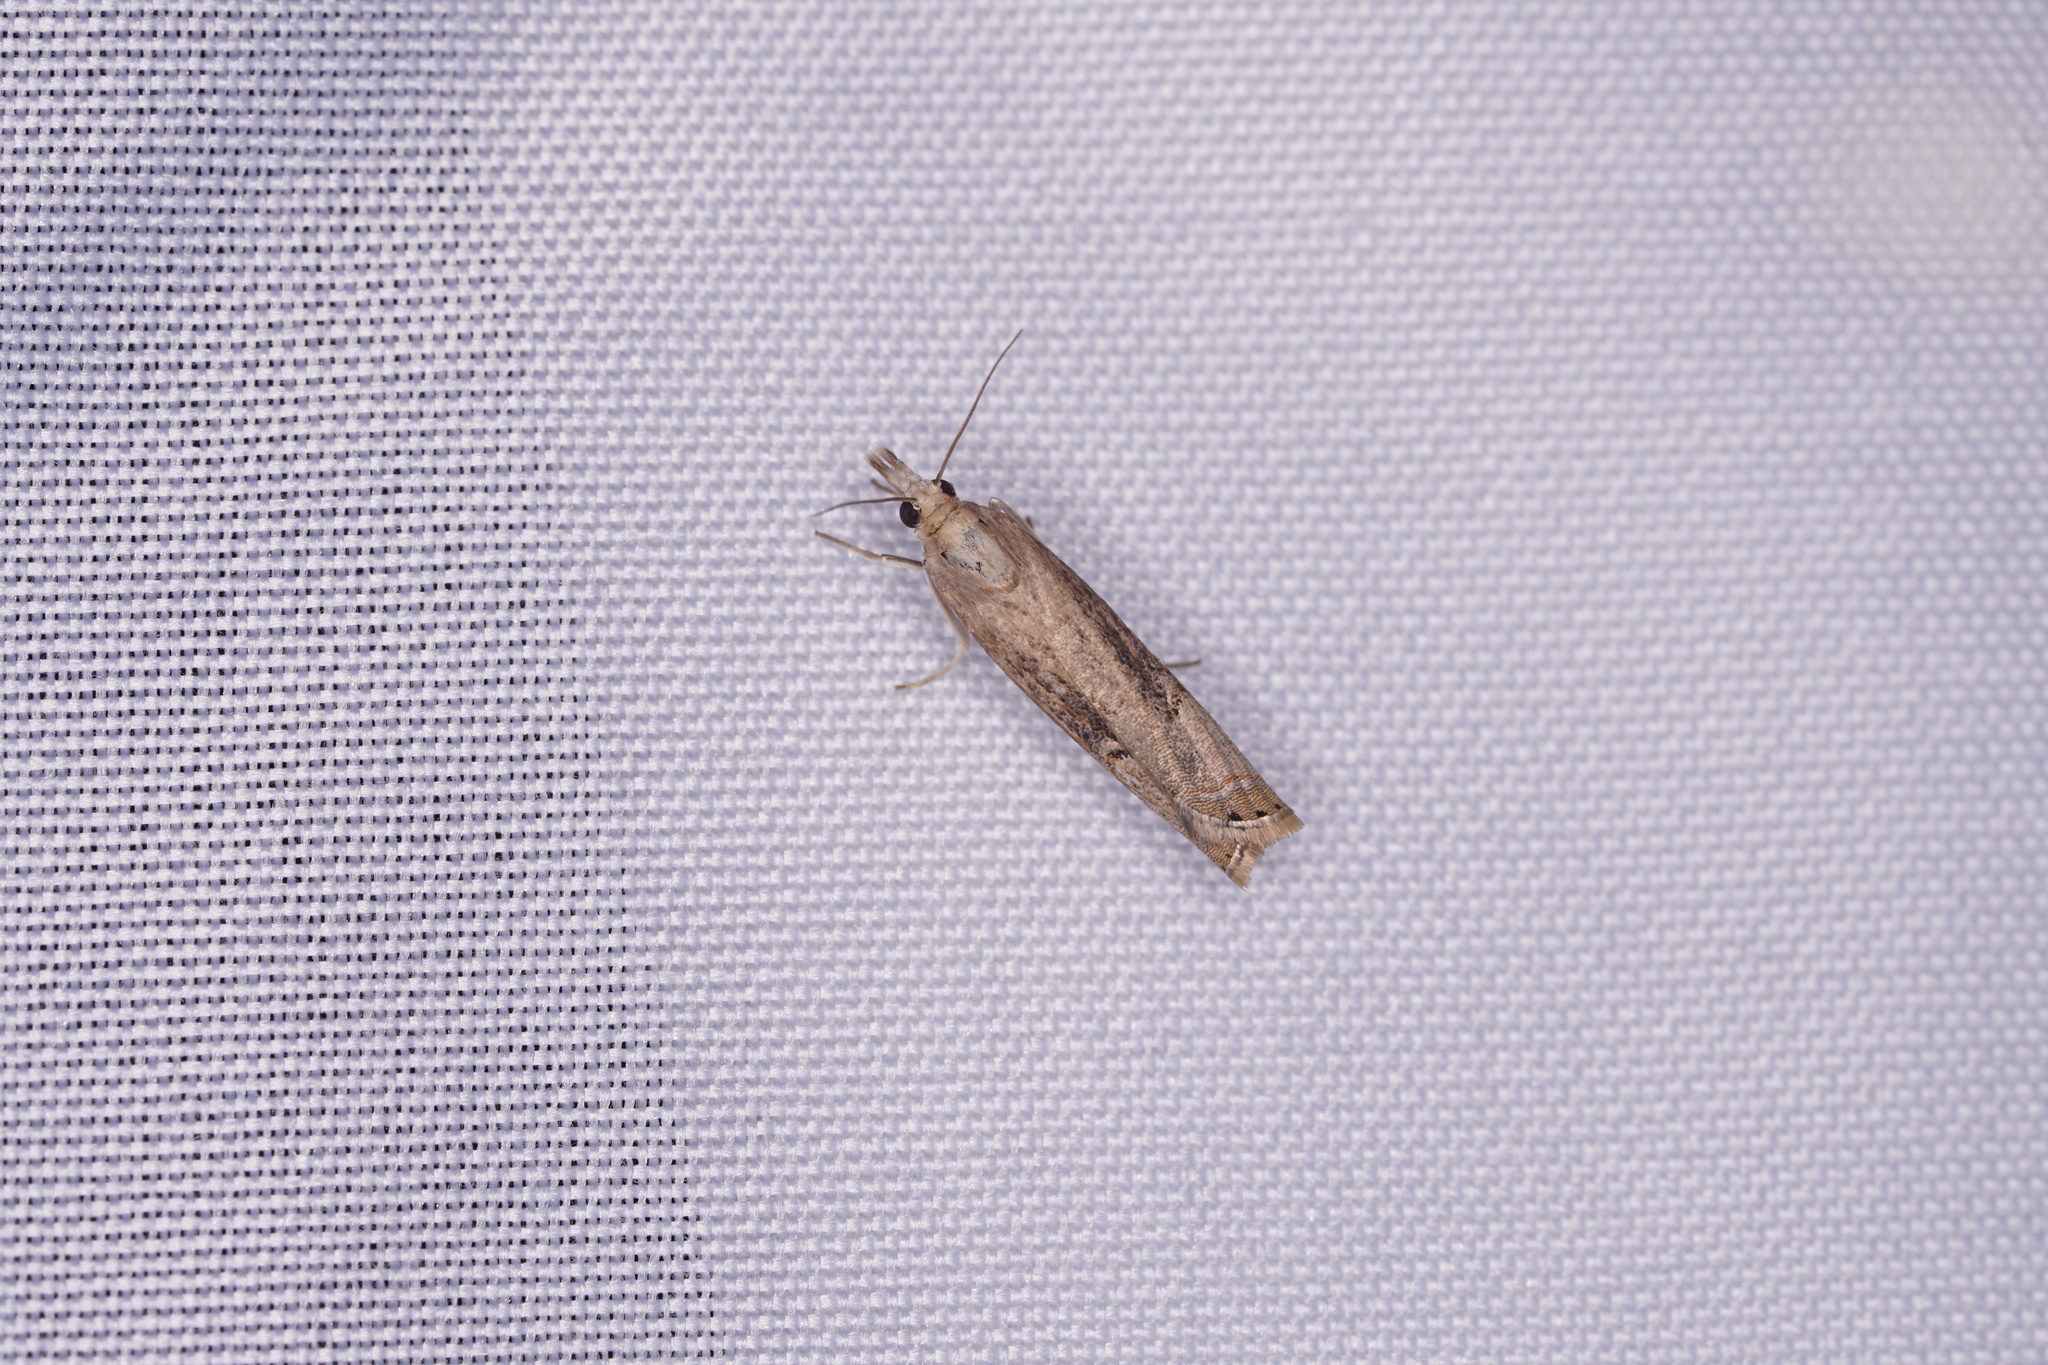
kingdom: Animalia
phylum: Arthropoda
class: Insecta
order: Lepidoptera
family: Crambidae
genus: Parapediasia
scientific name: Parapediasia teterellus
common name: Bluegrass webworm moth
